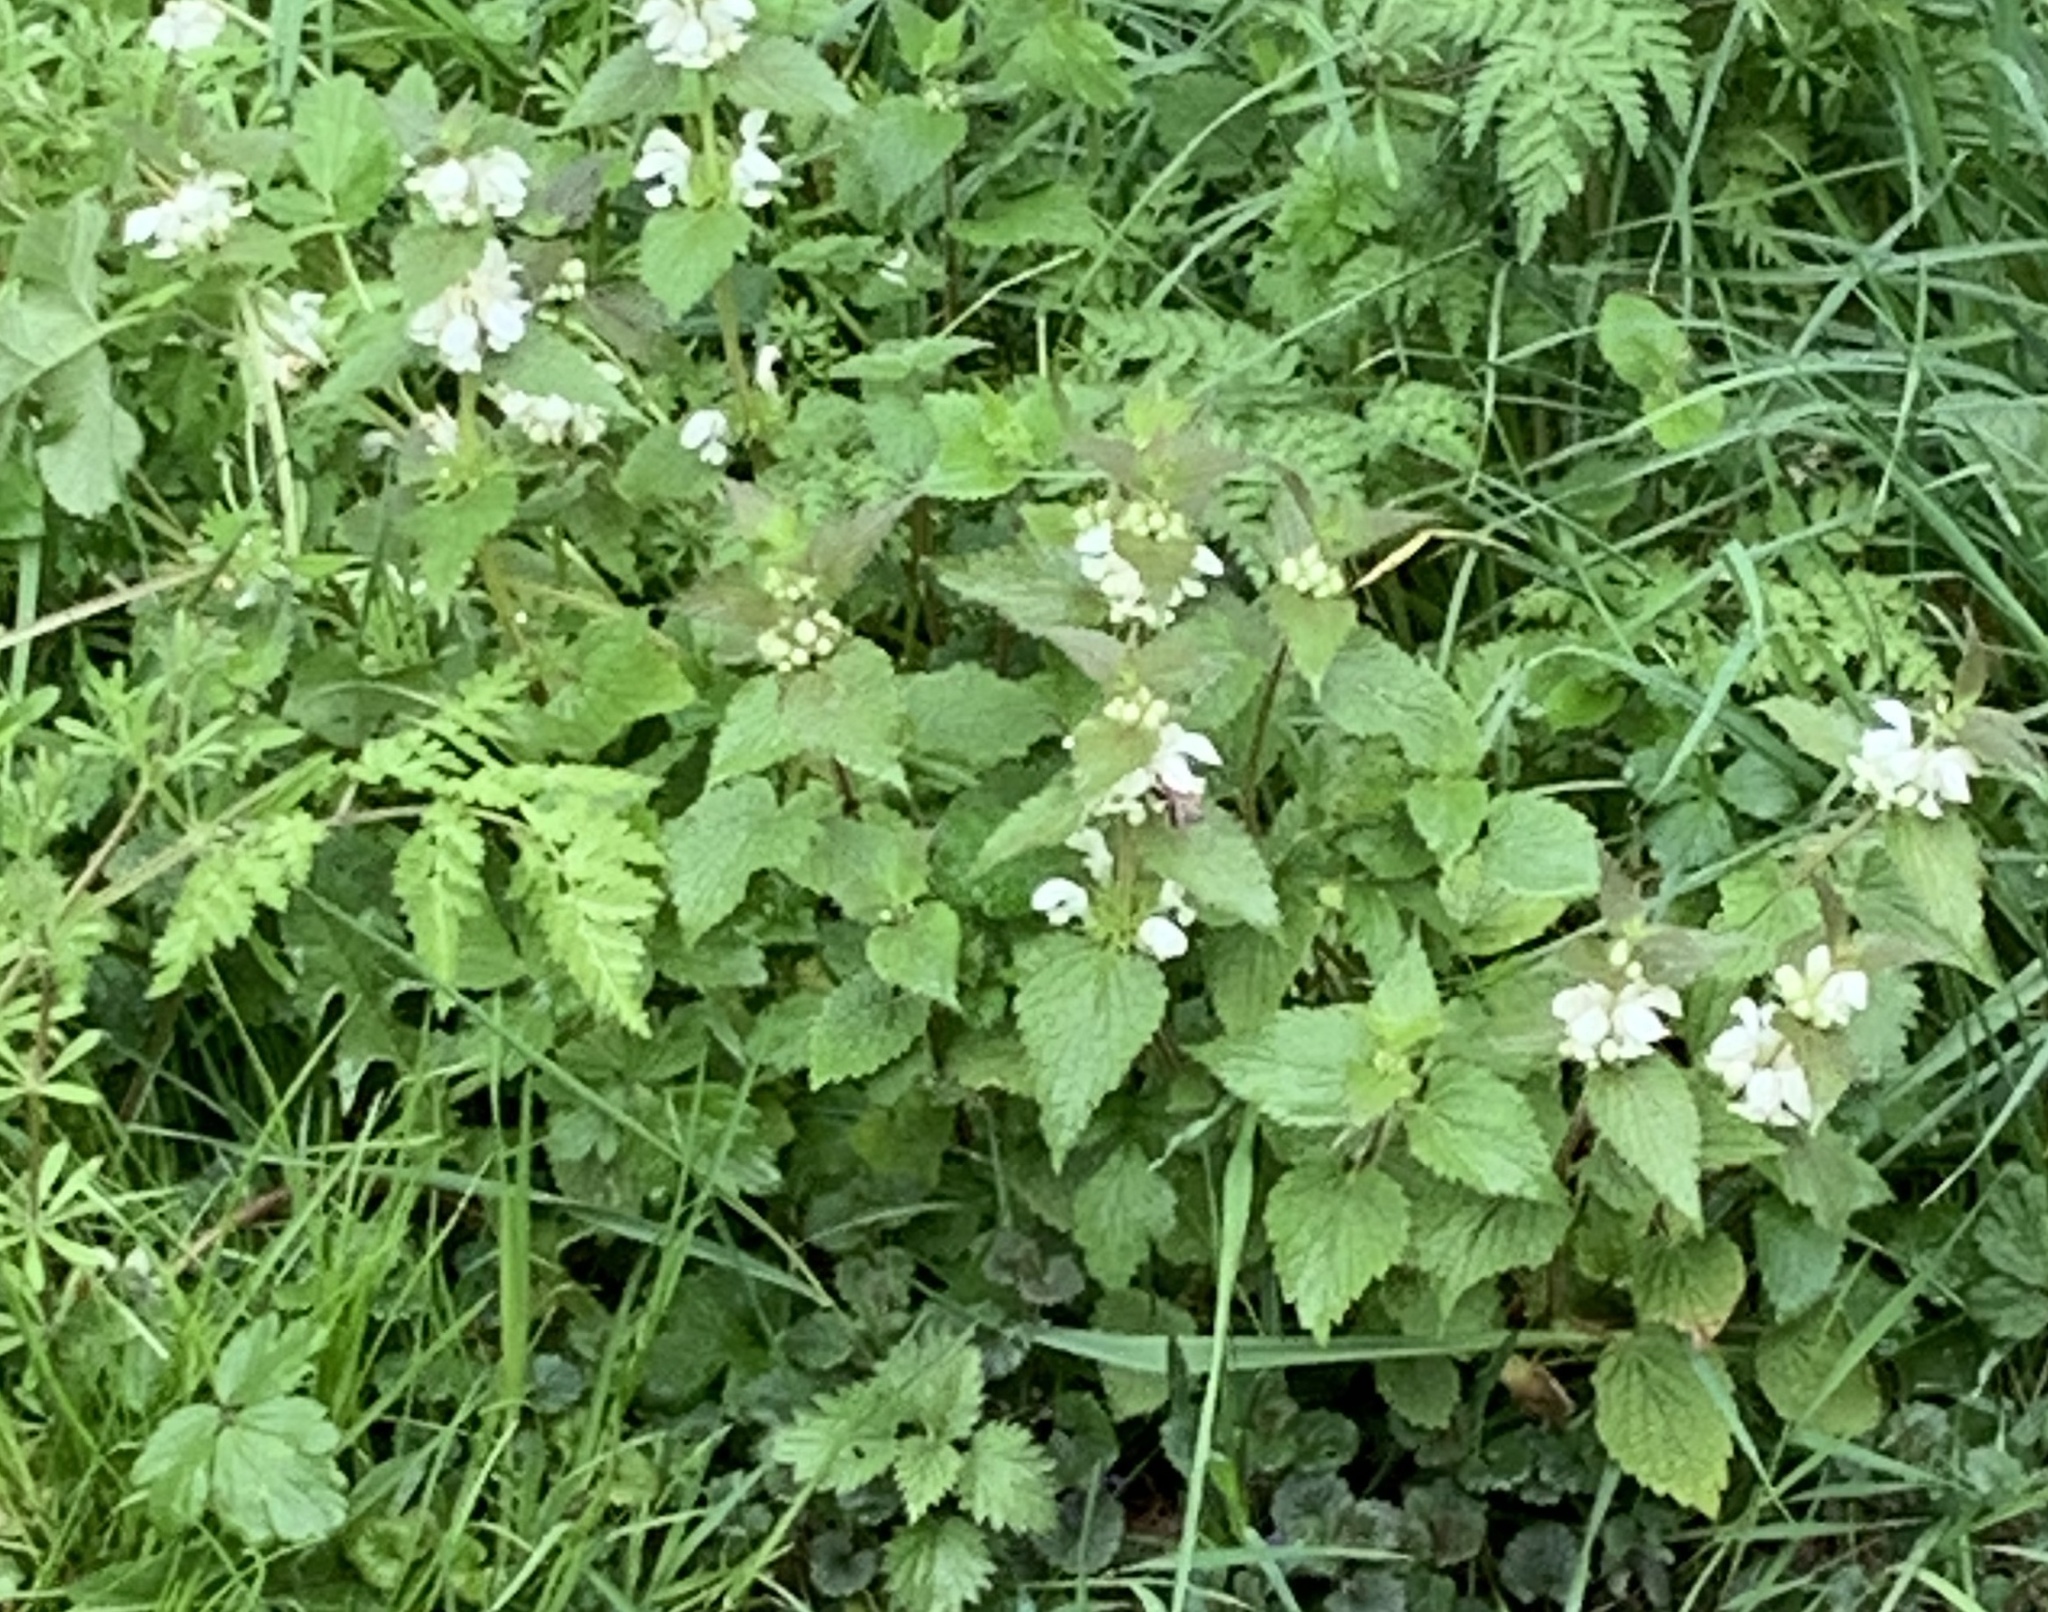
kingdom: Plantae
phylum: Tracheophyta
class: Magnoliopsida
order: Lamiales
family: Lamiaceae
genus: Lamium
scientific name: Lamium album
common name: White dead-nettle
